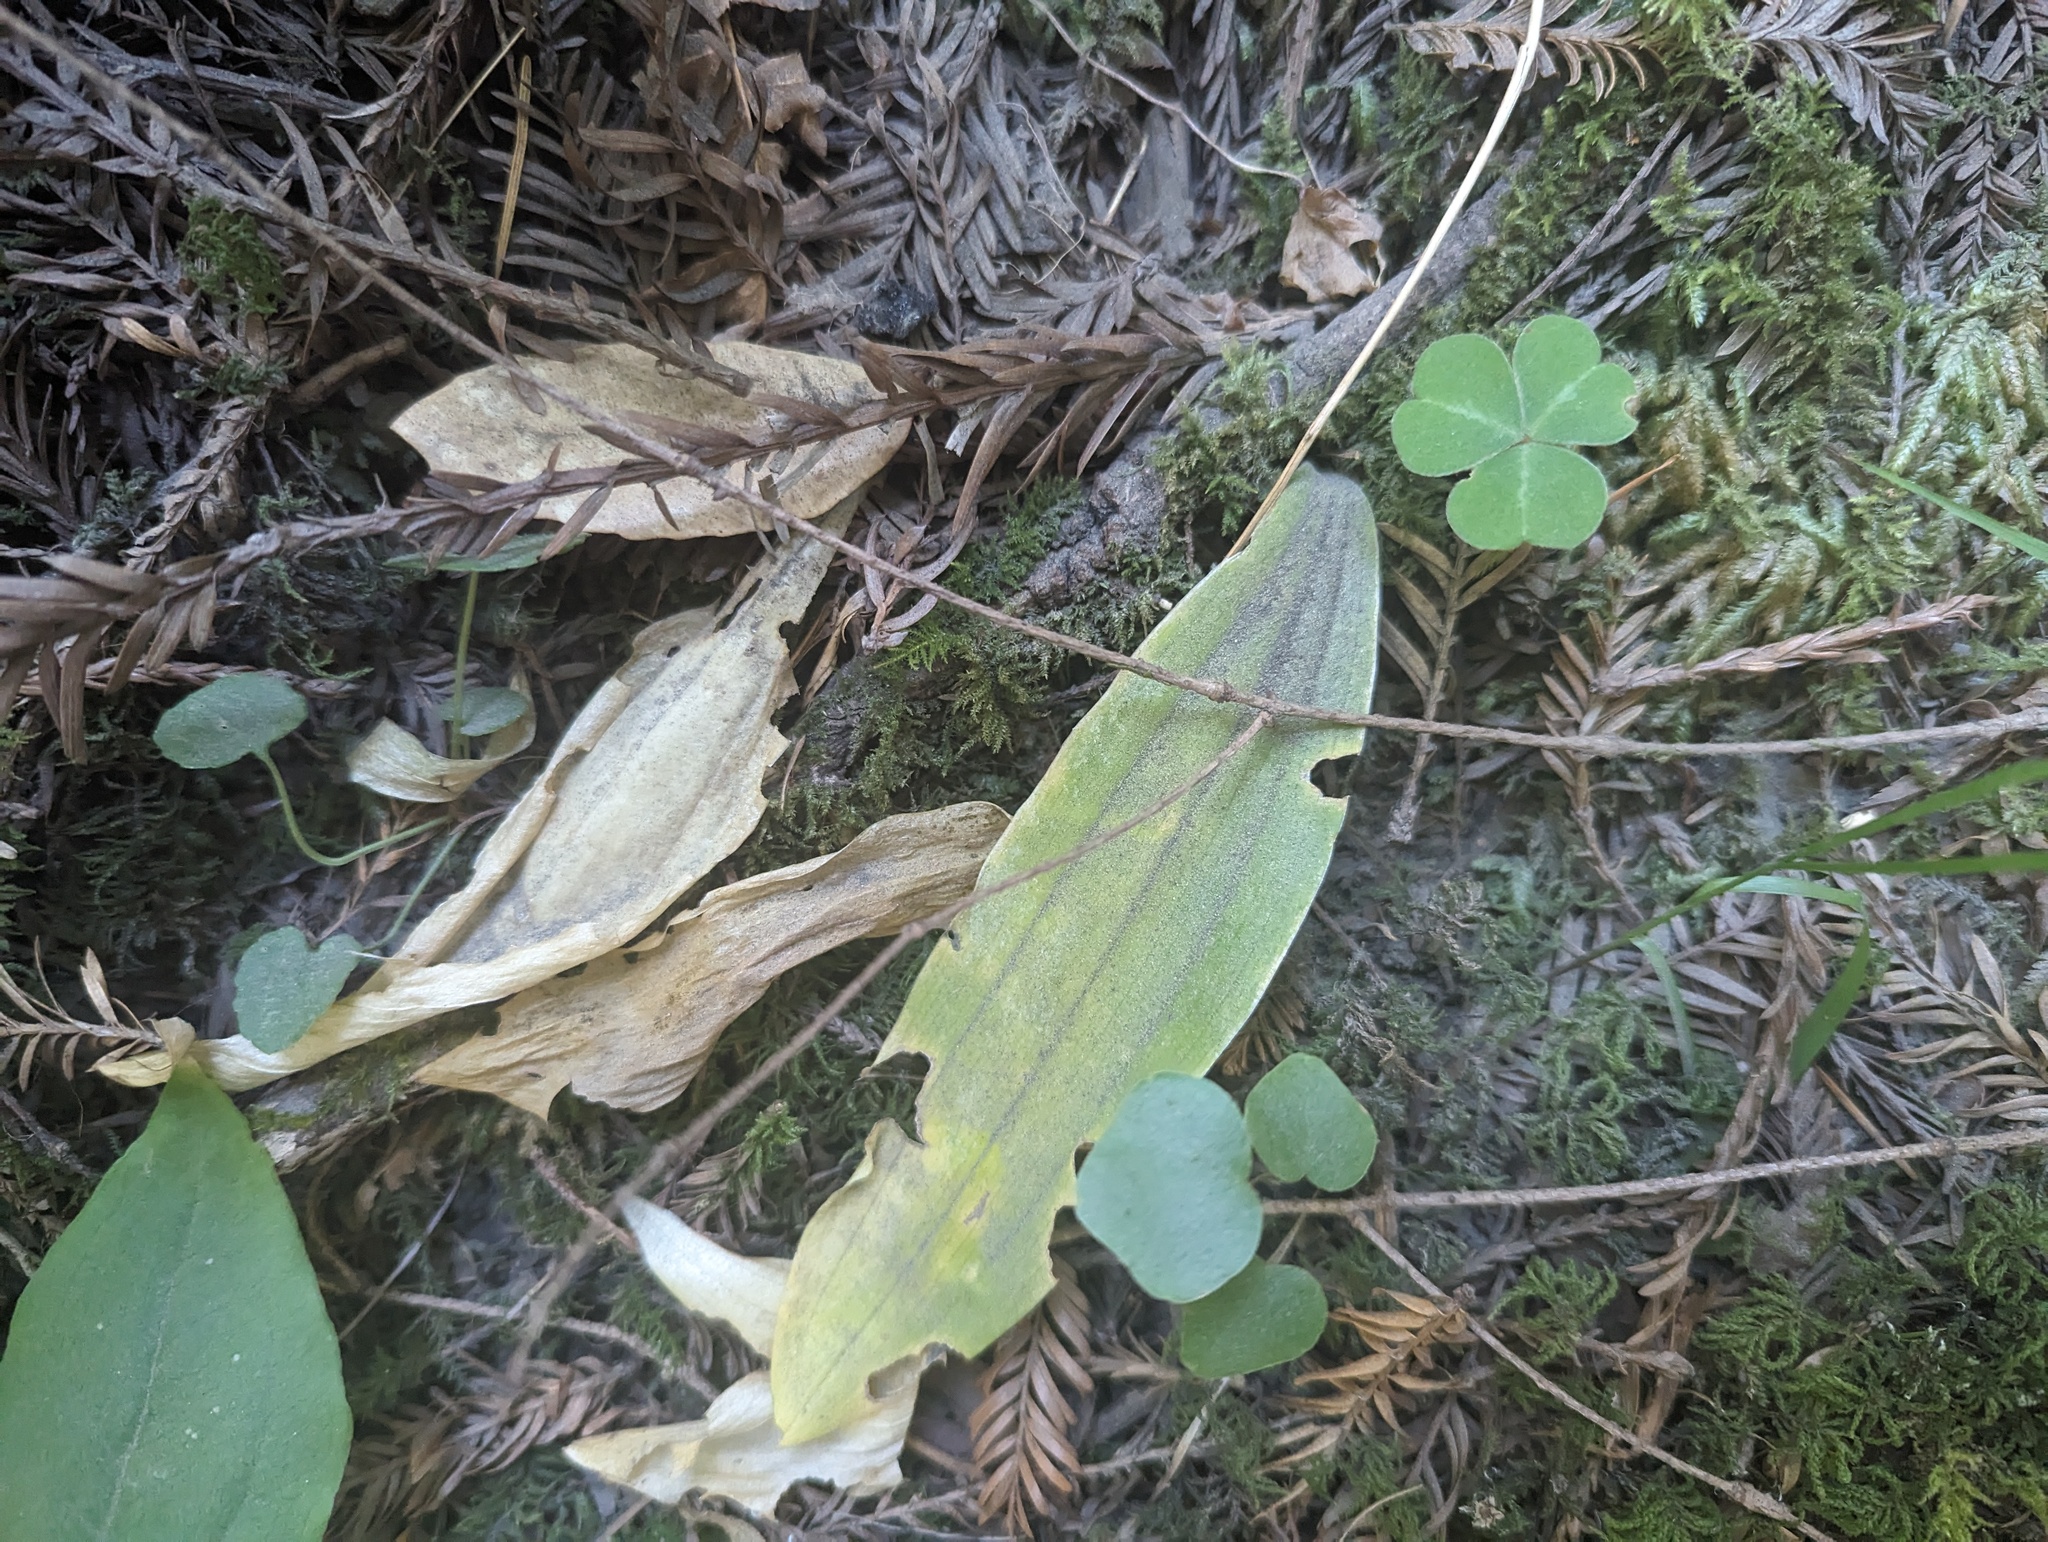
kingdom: Plantae
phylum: Tracheophyta
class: Liliopsida
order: Liliales
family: Liliaceae
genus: Scoliopus
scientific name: Scoliopus bigelovii
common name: Foetid adder's-tongue
